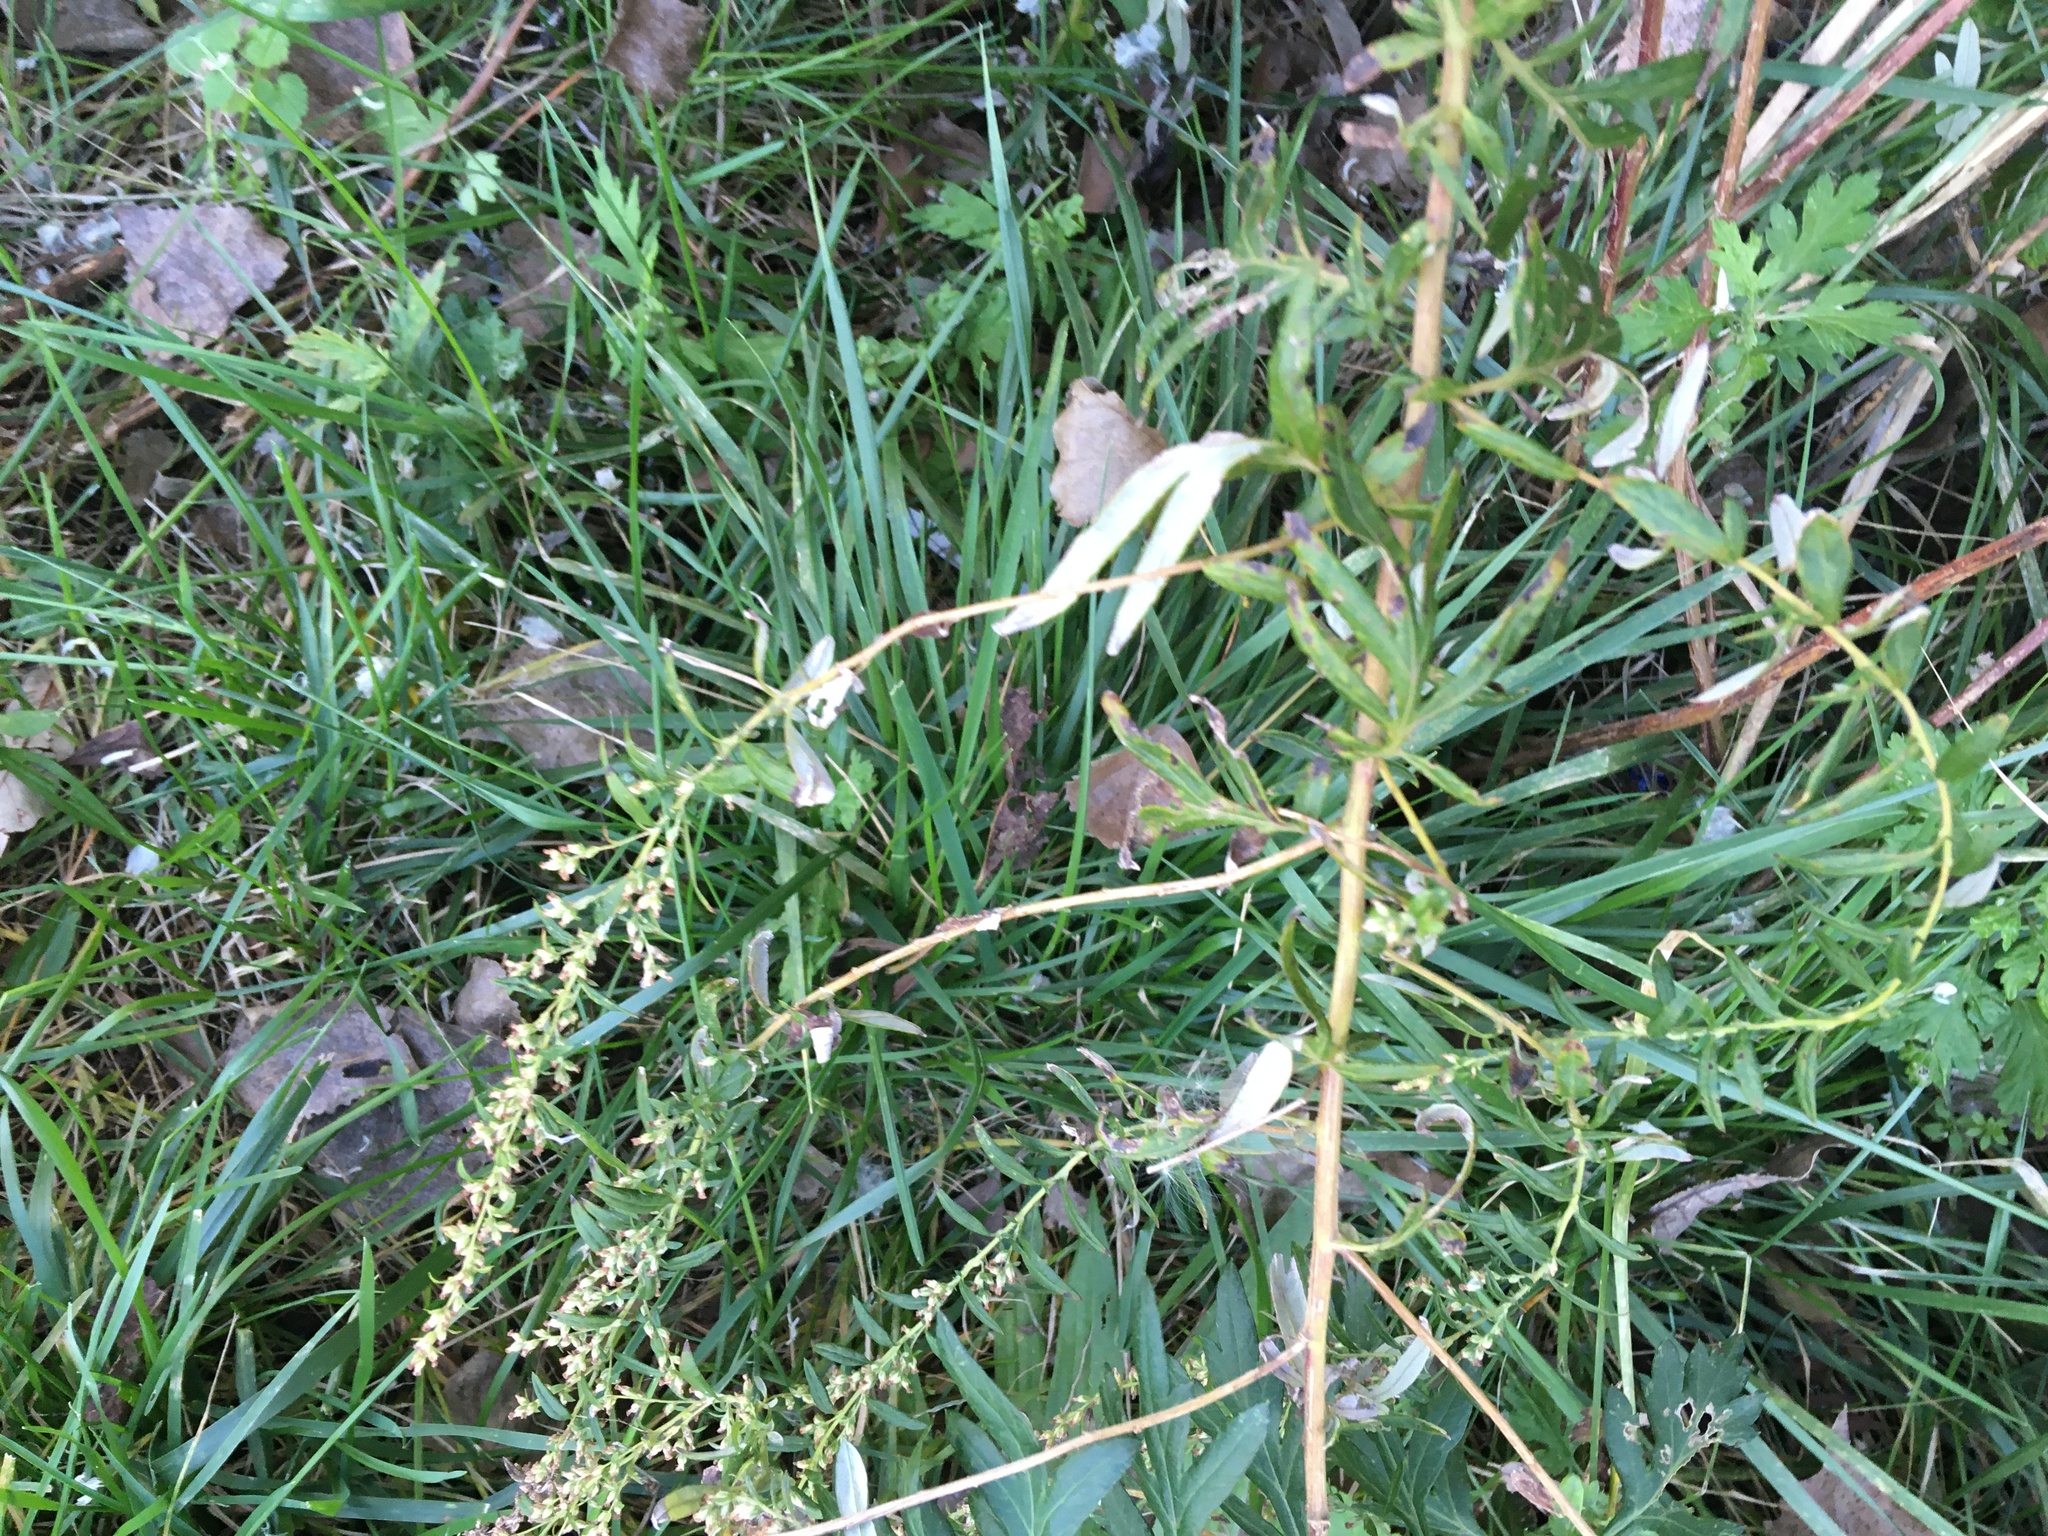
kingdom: Plantae
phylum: Tracheophyta
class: Magnoliopsida
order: Asterales
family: Asteraceae
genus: Artemisia
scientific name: Artemisia vulgaris
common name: Mugwort
